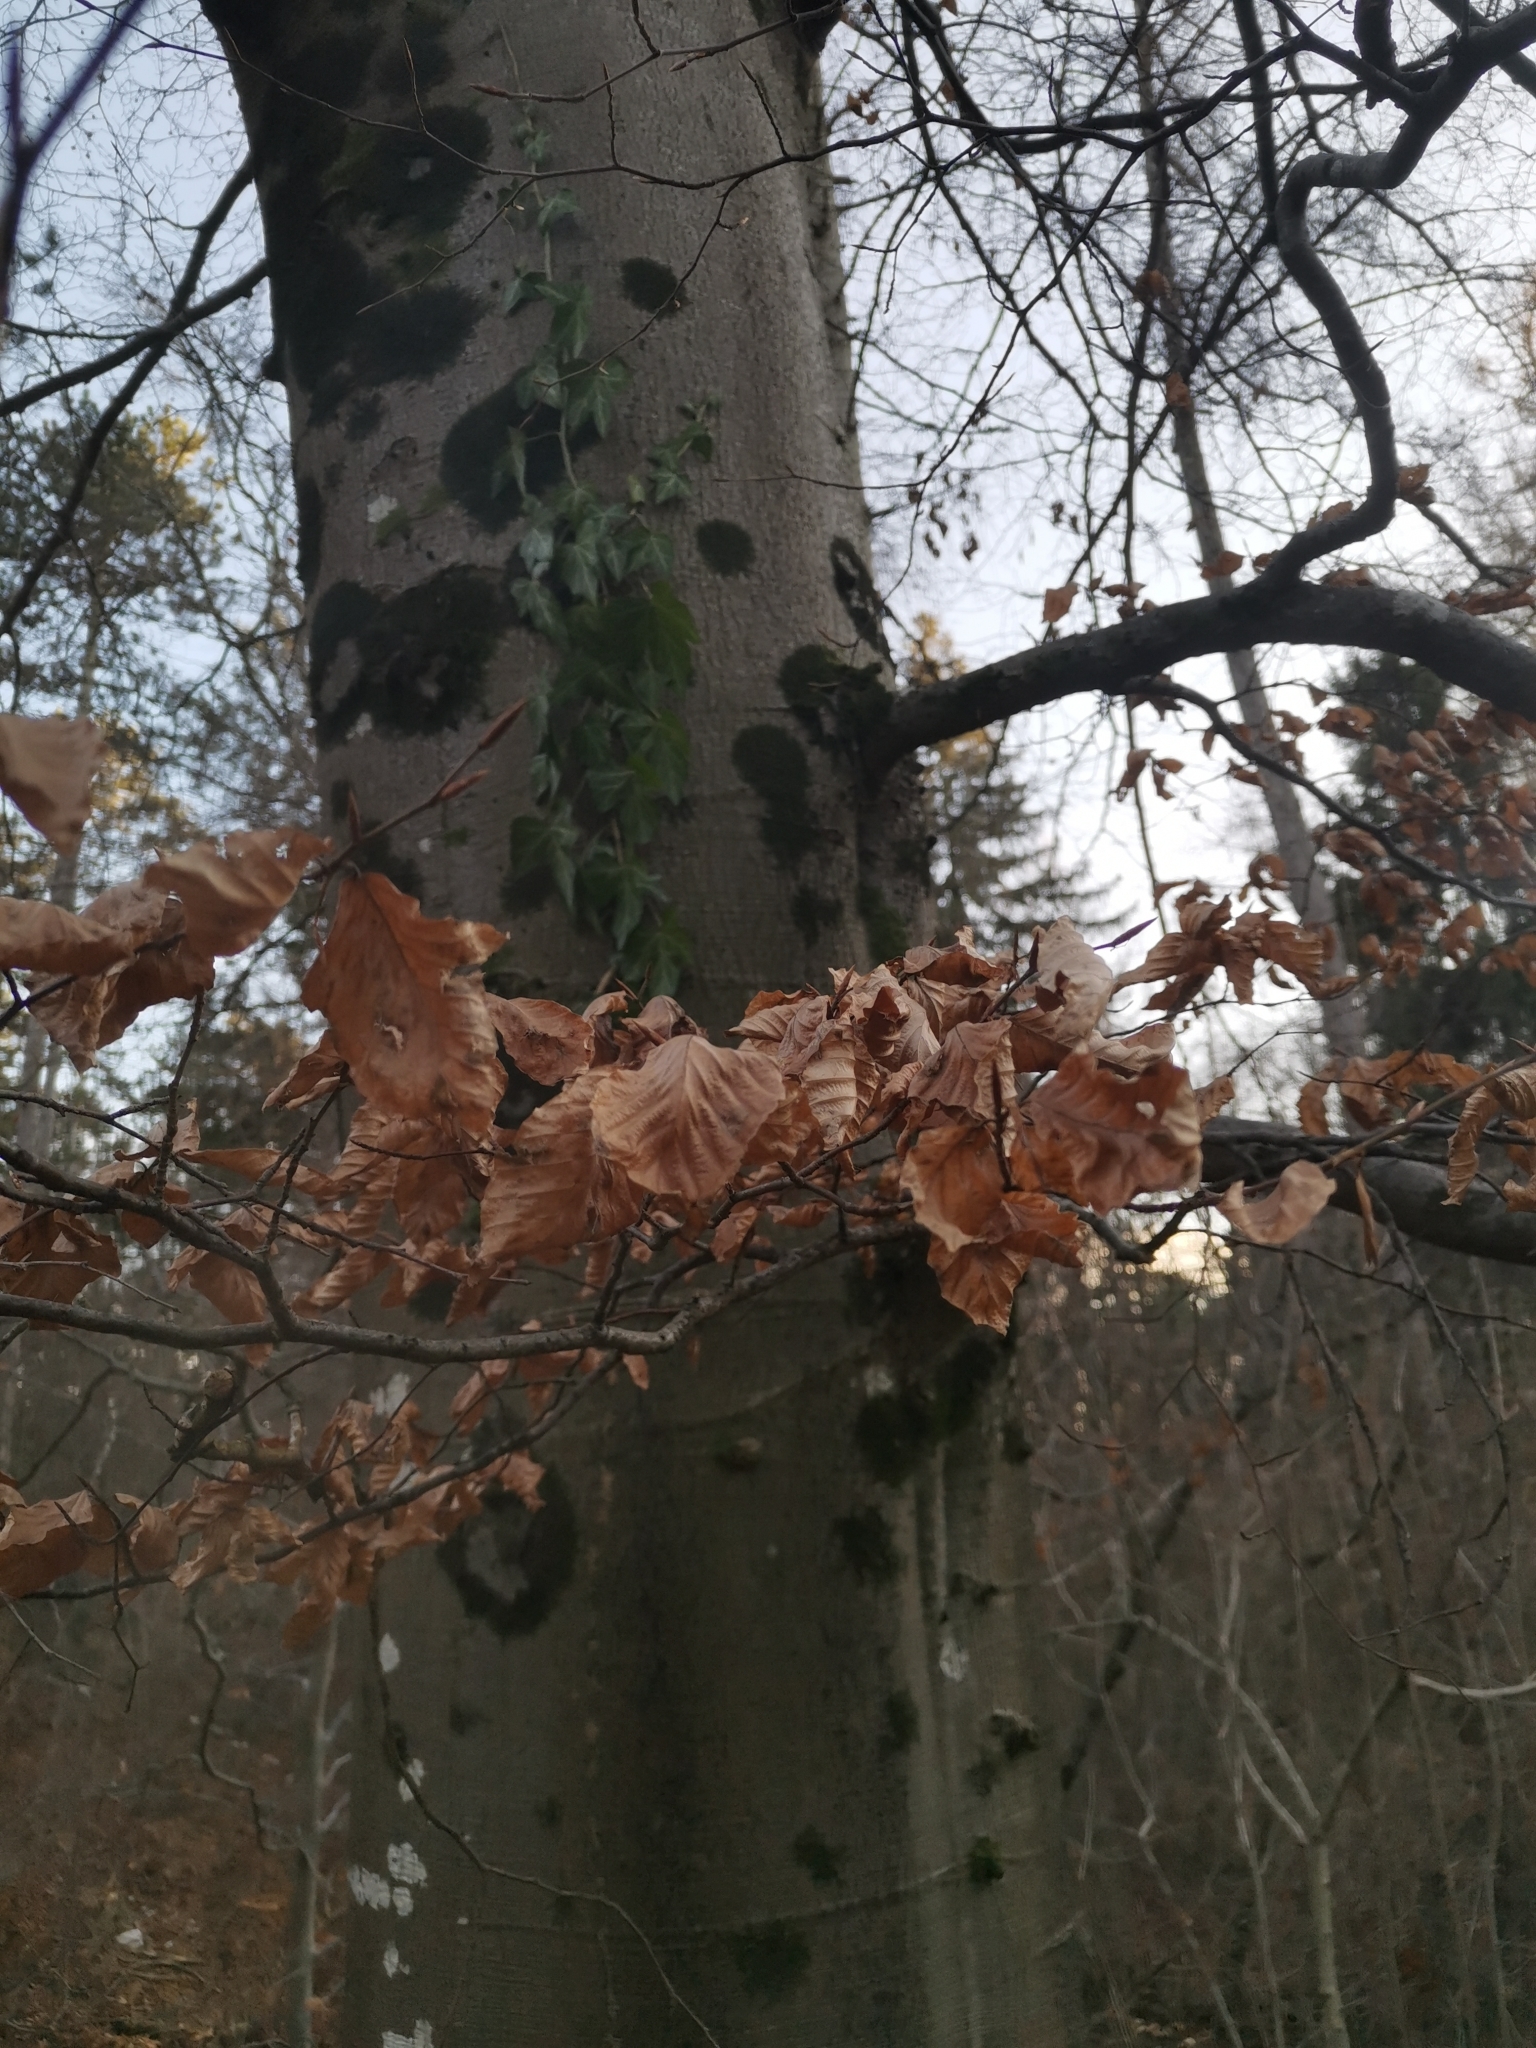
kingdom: Plantae
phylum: Tracheophyta
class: Magnoliopsida
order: Fagales
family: Fagaceae
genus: Fagus
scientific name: Fagus sylvatica
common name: Beech
